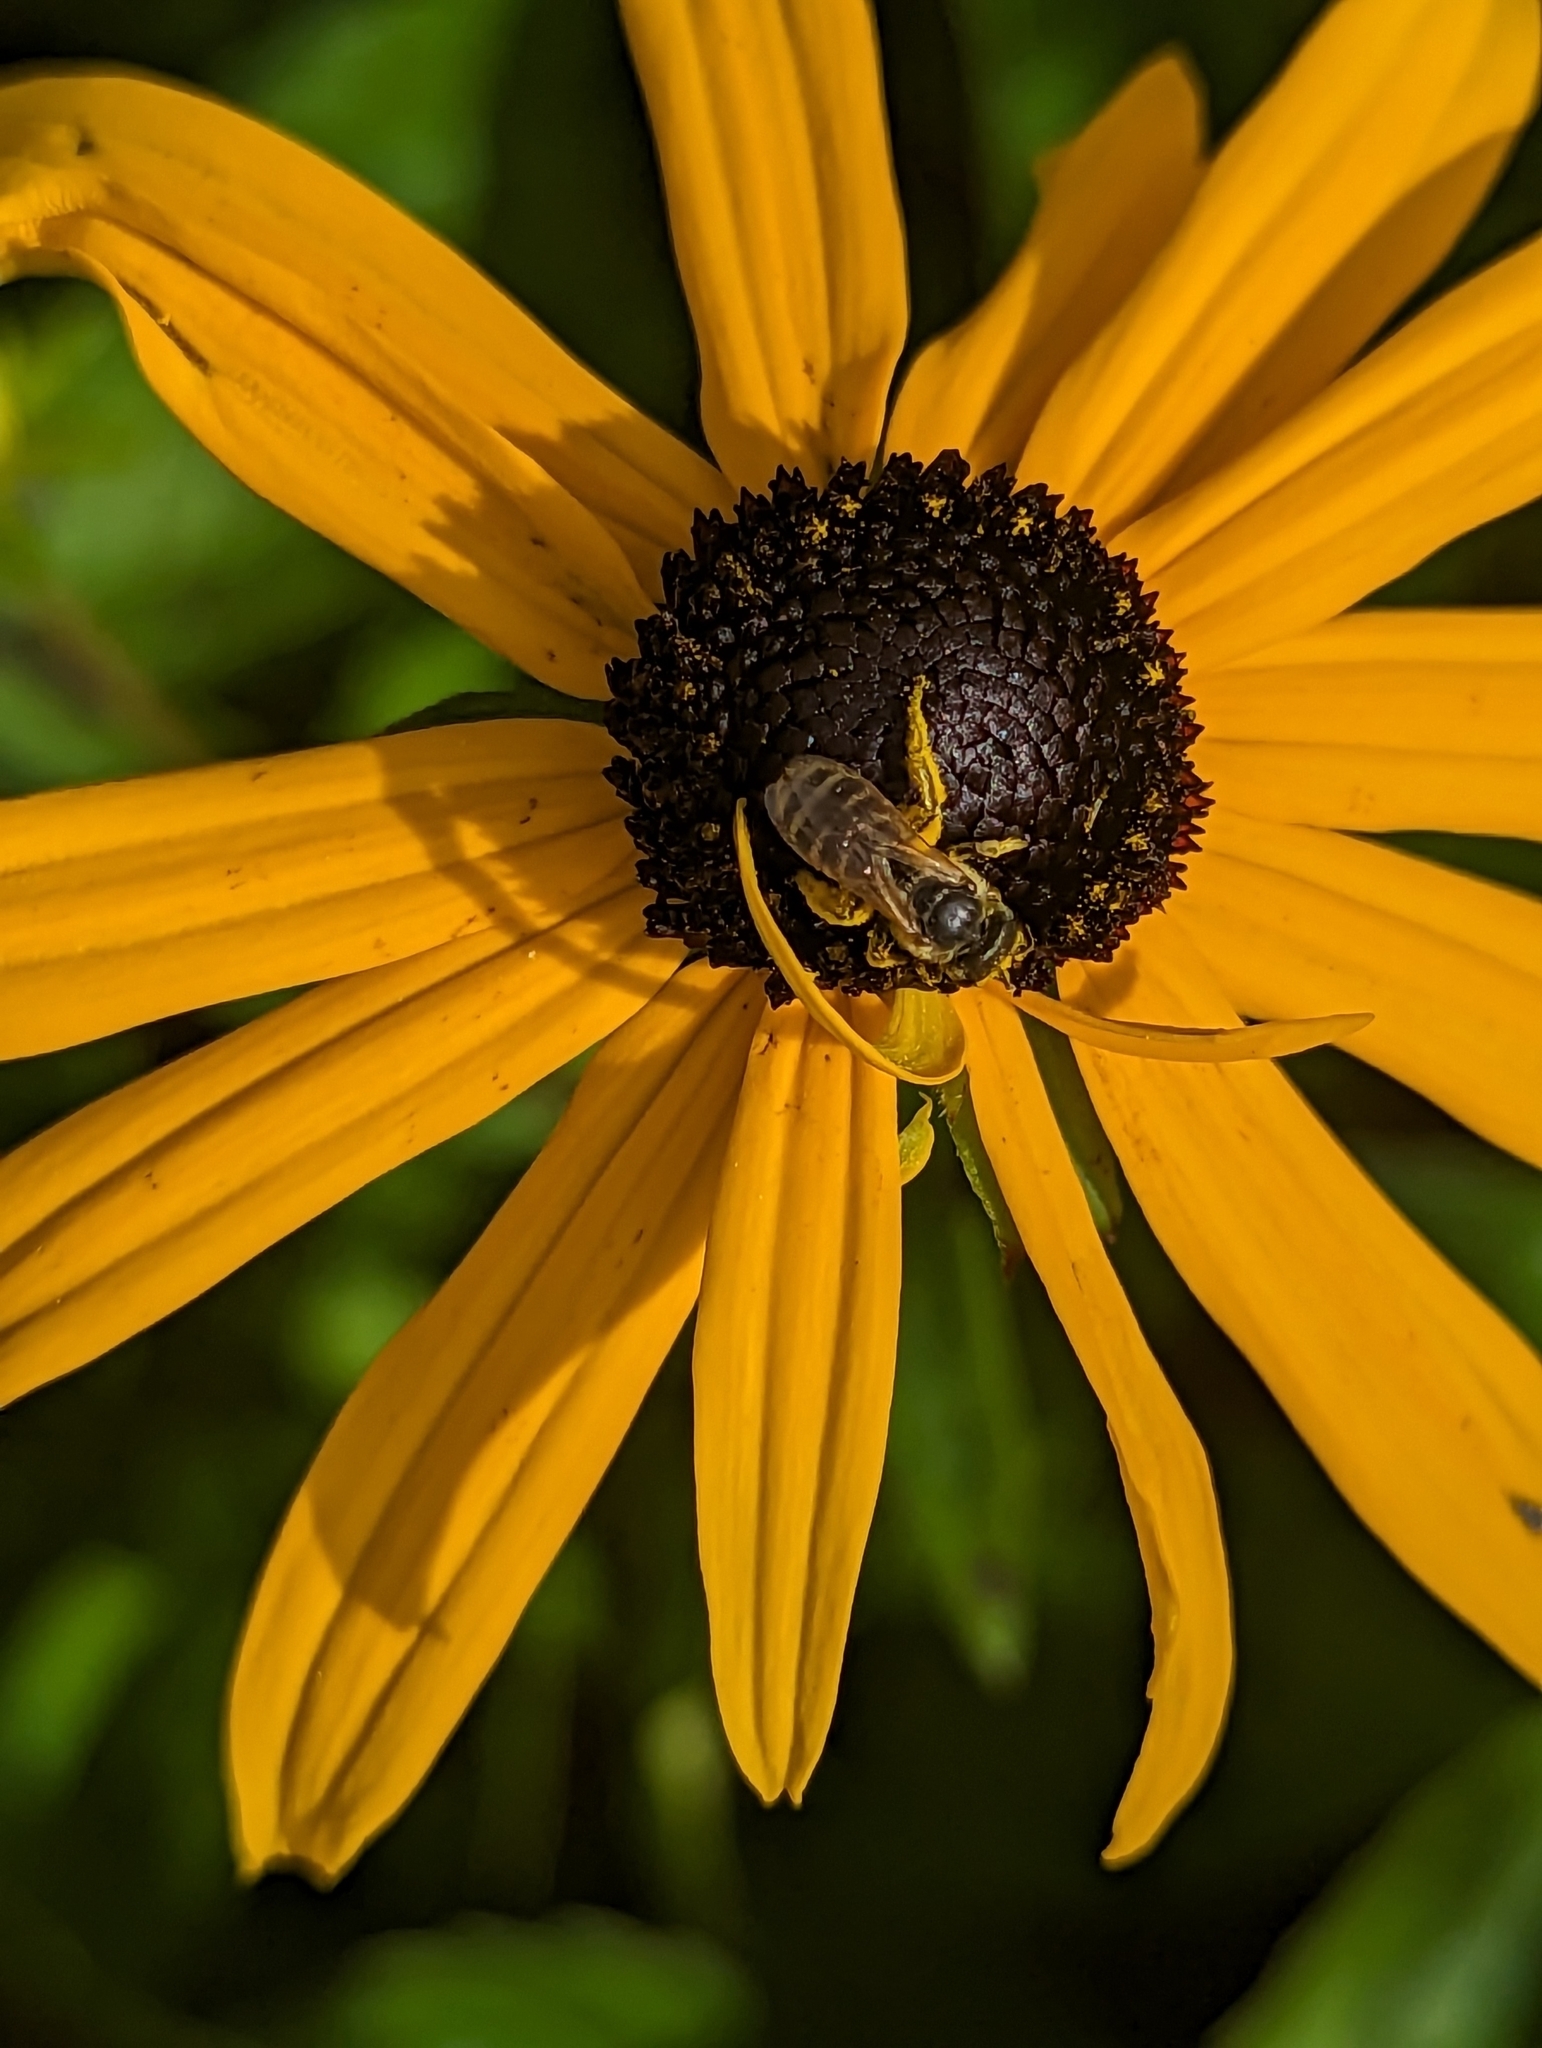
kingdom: Animalia
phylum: Arthropoda
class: Insecta
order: Hymenoptera
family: Halictidae
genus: Halictus
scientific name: Halictus ligatus
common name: Ligated furrow bee
